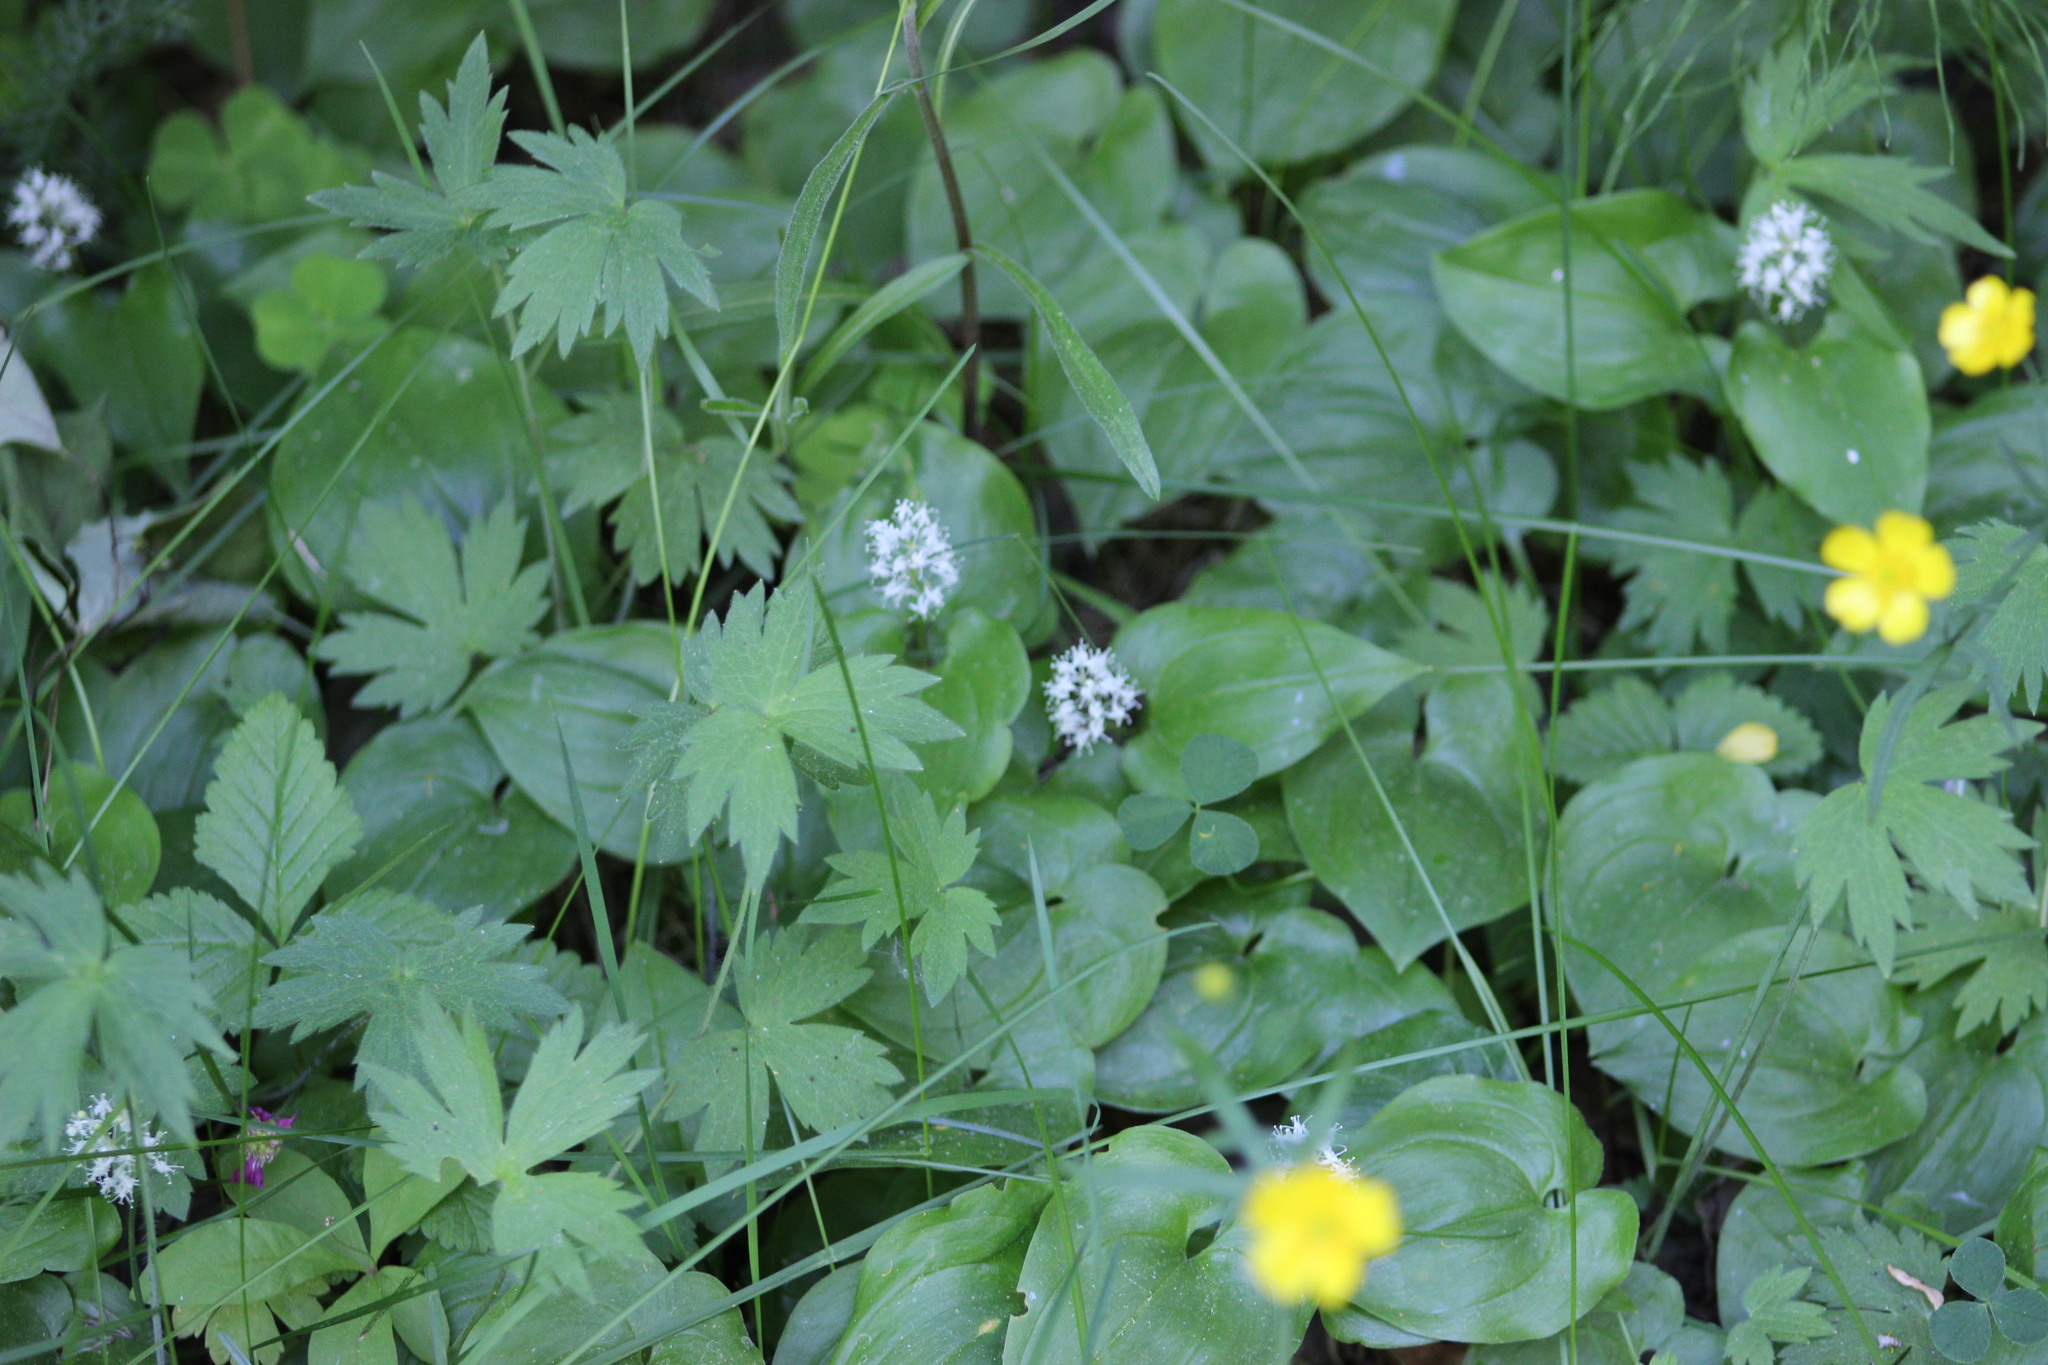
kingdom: Plantae
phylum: Tracheophyta
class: Liliopsida
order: Asparagales
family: Asparagaceae
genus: Maianthemum
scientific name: Maianthemum bifolium
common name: May lily
